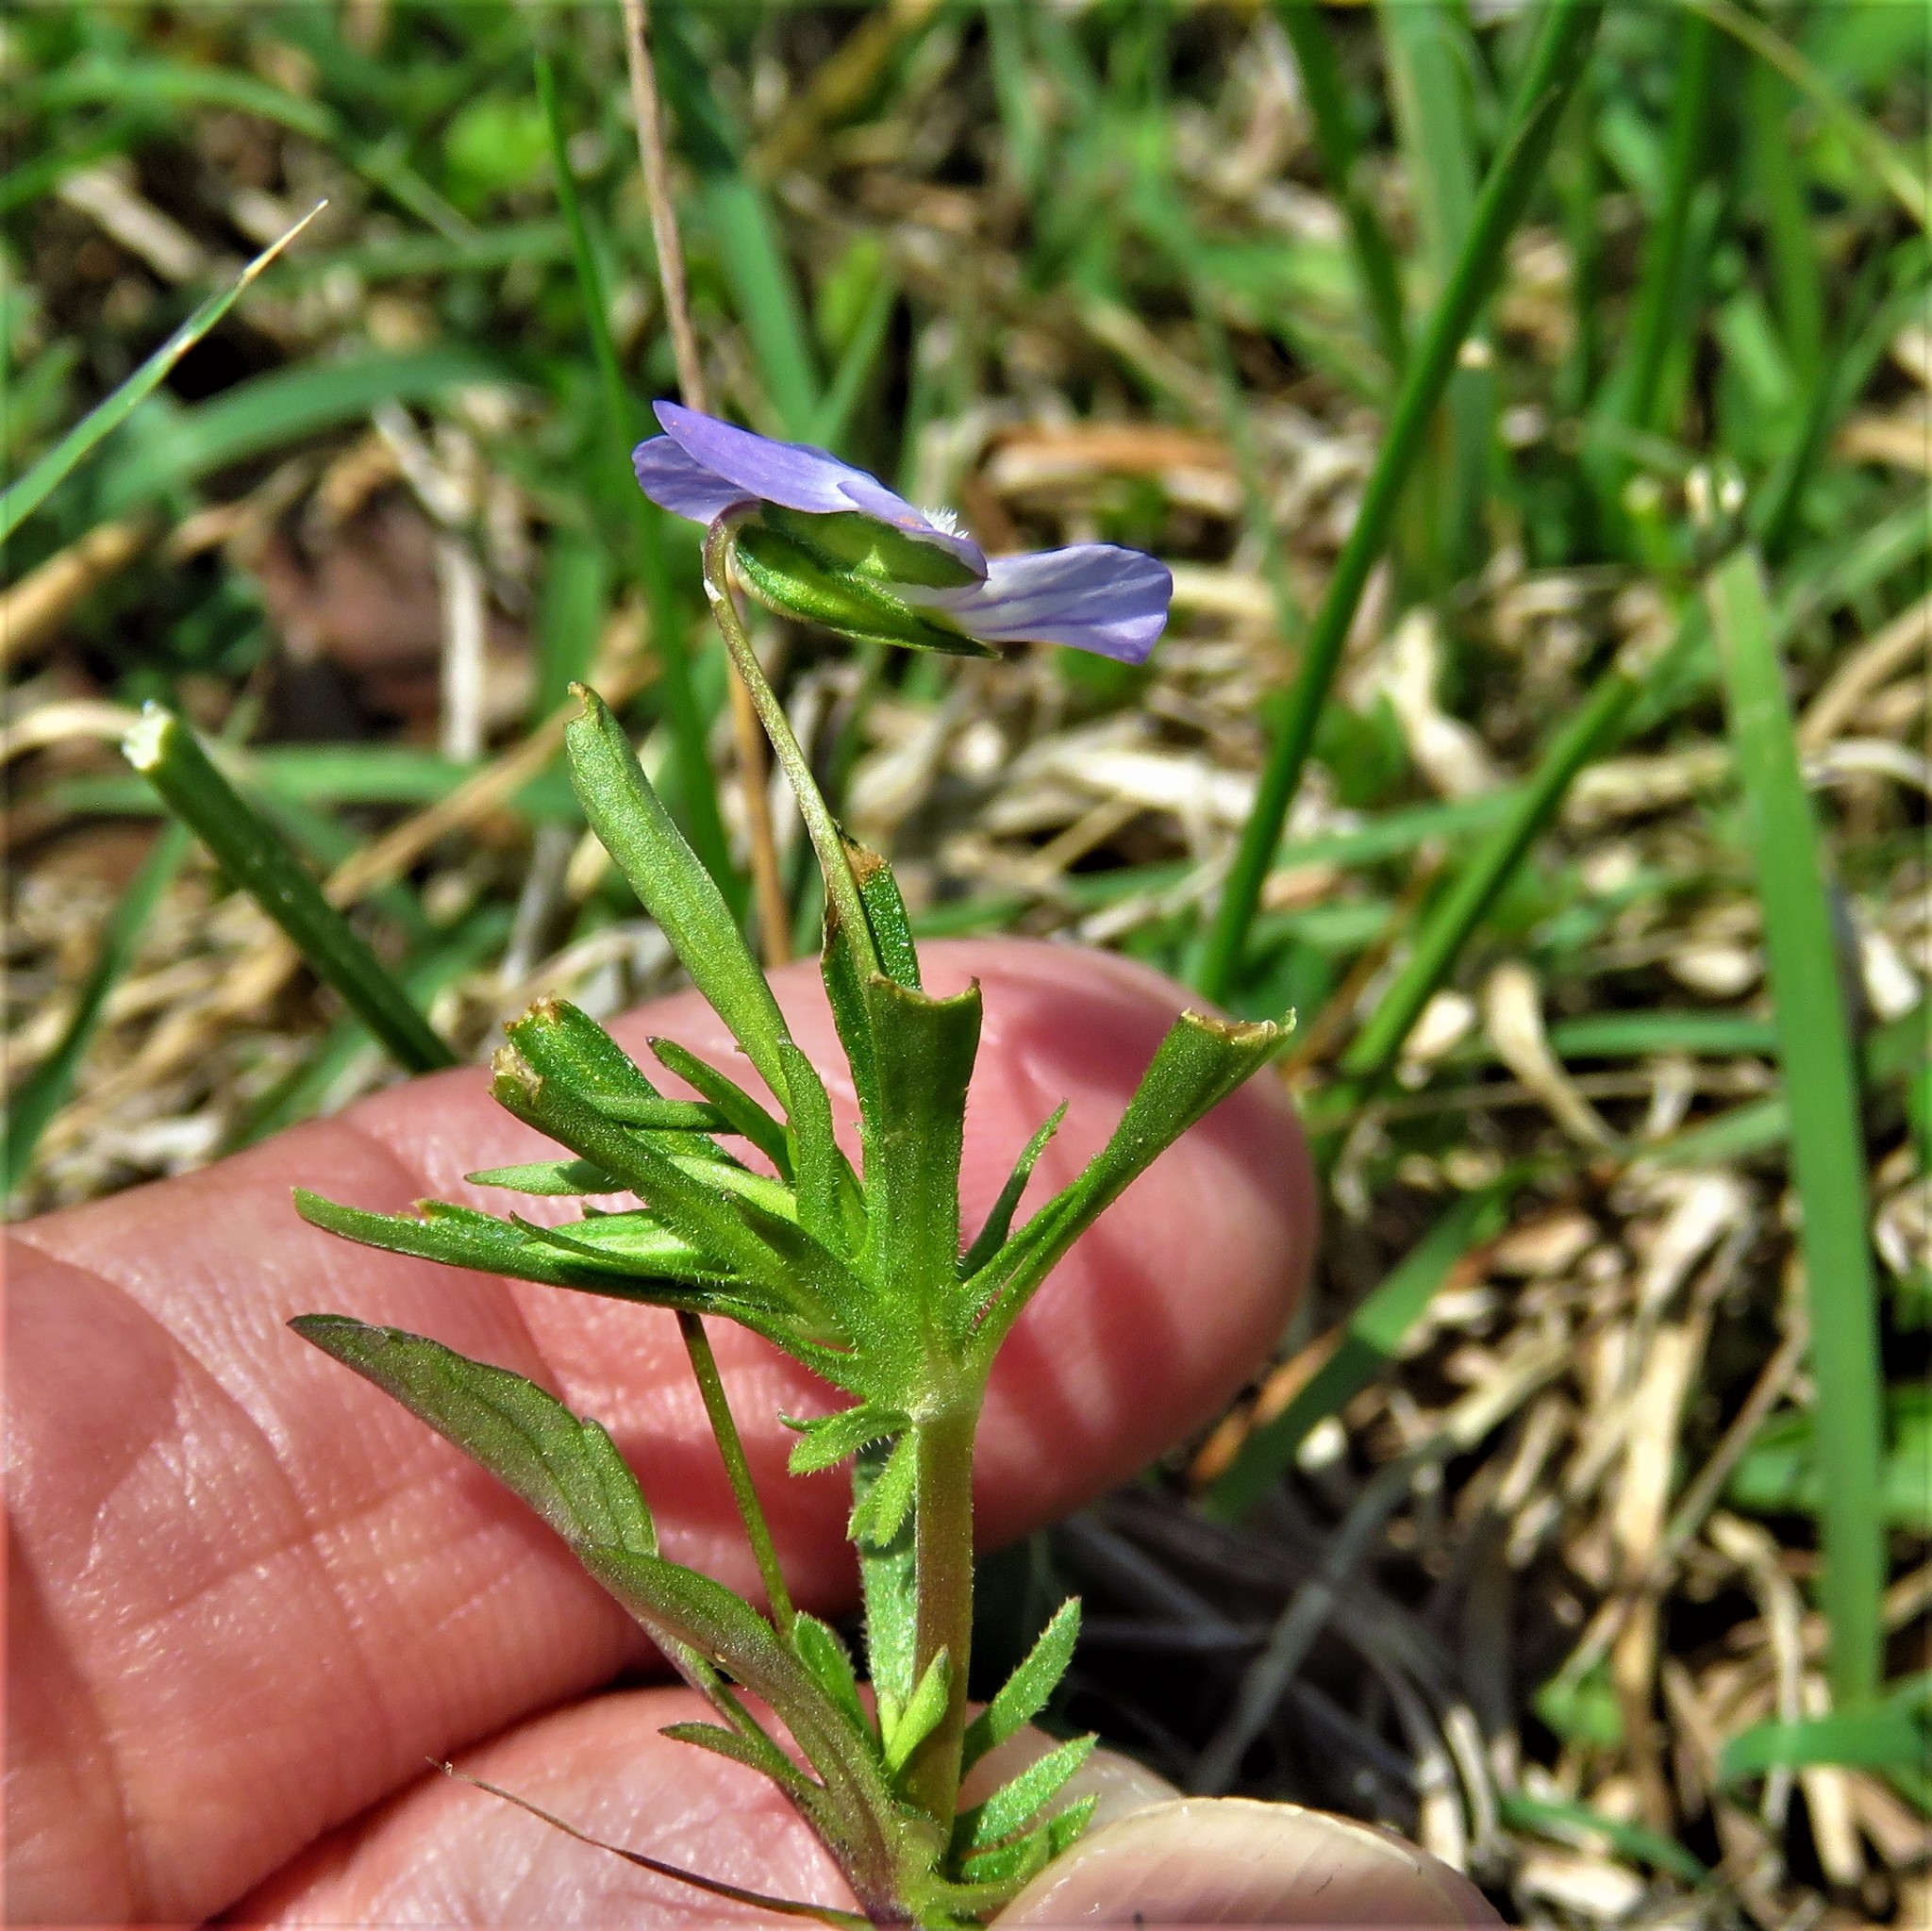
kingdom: Plantae
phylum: Tracheophyta
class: Magnoliopsida
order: Malpighiales
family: Violaceae
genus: Viola
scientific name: Viola rafinesquei
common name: American field pansy
